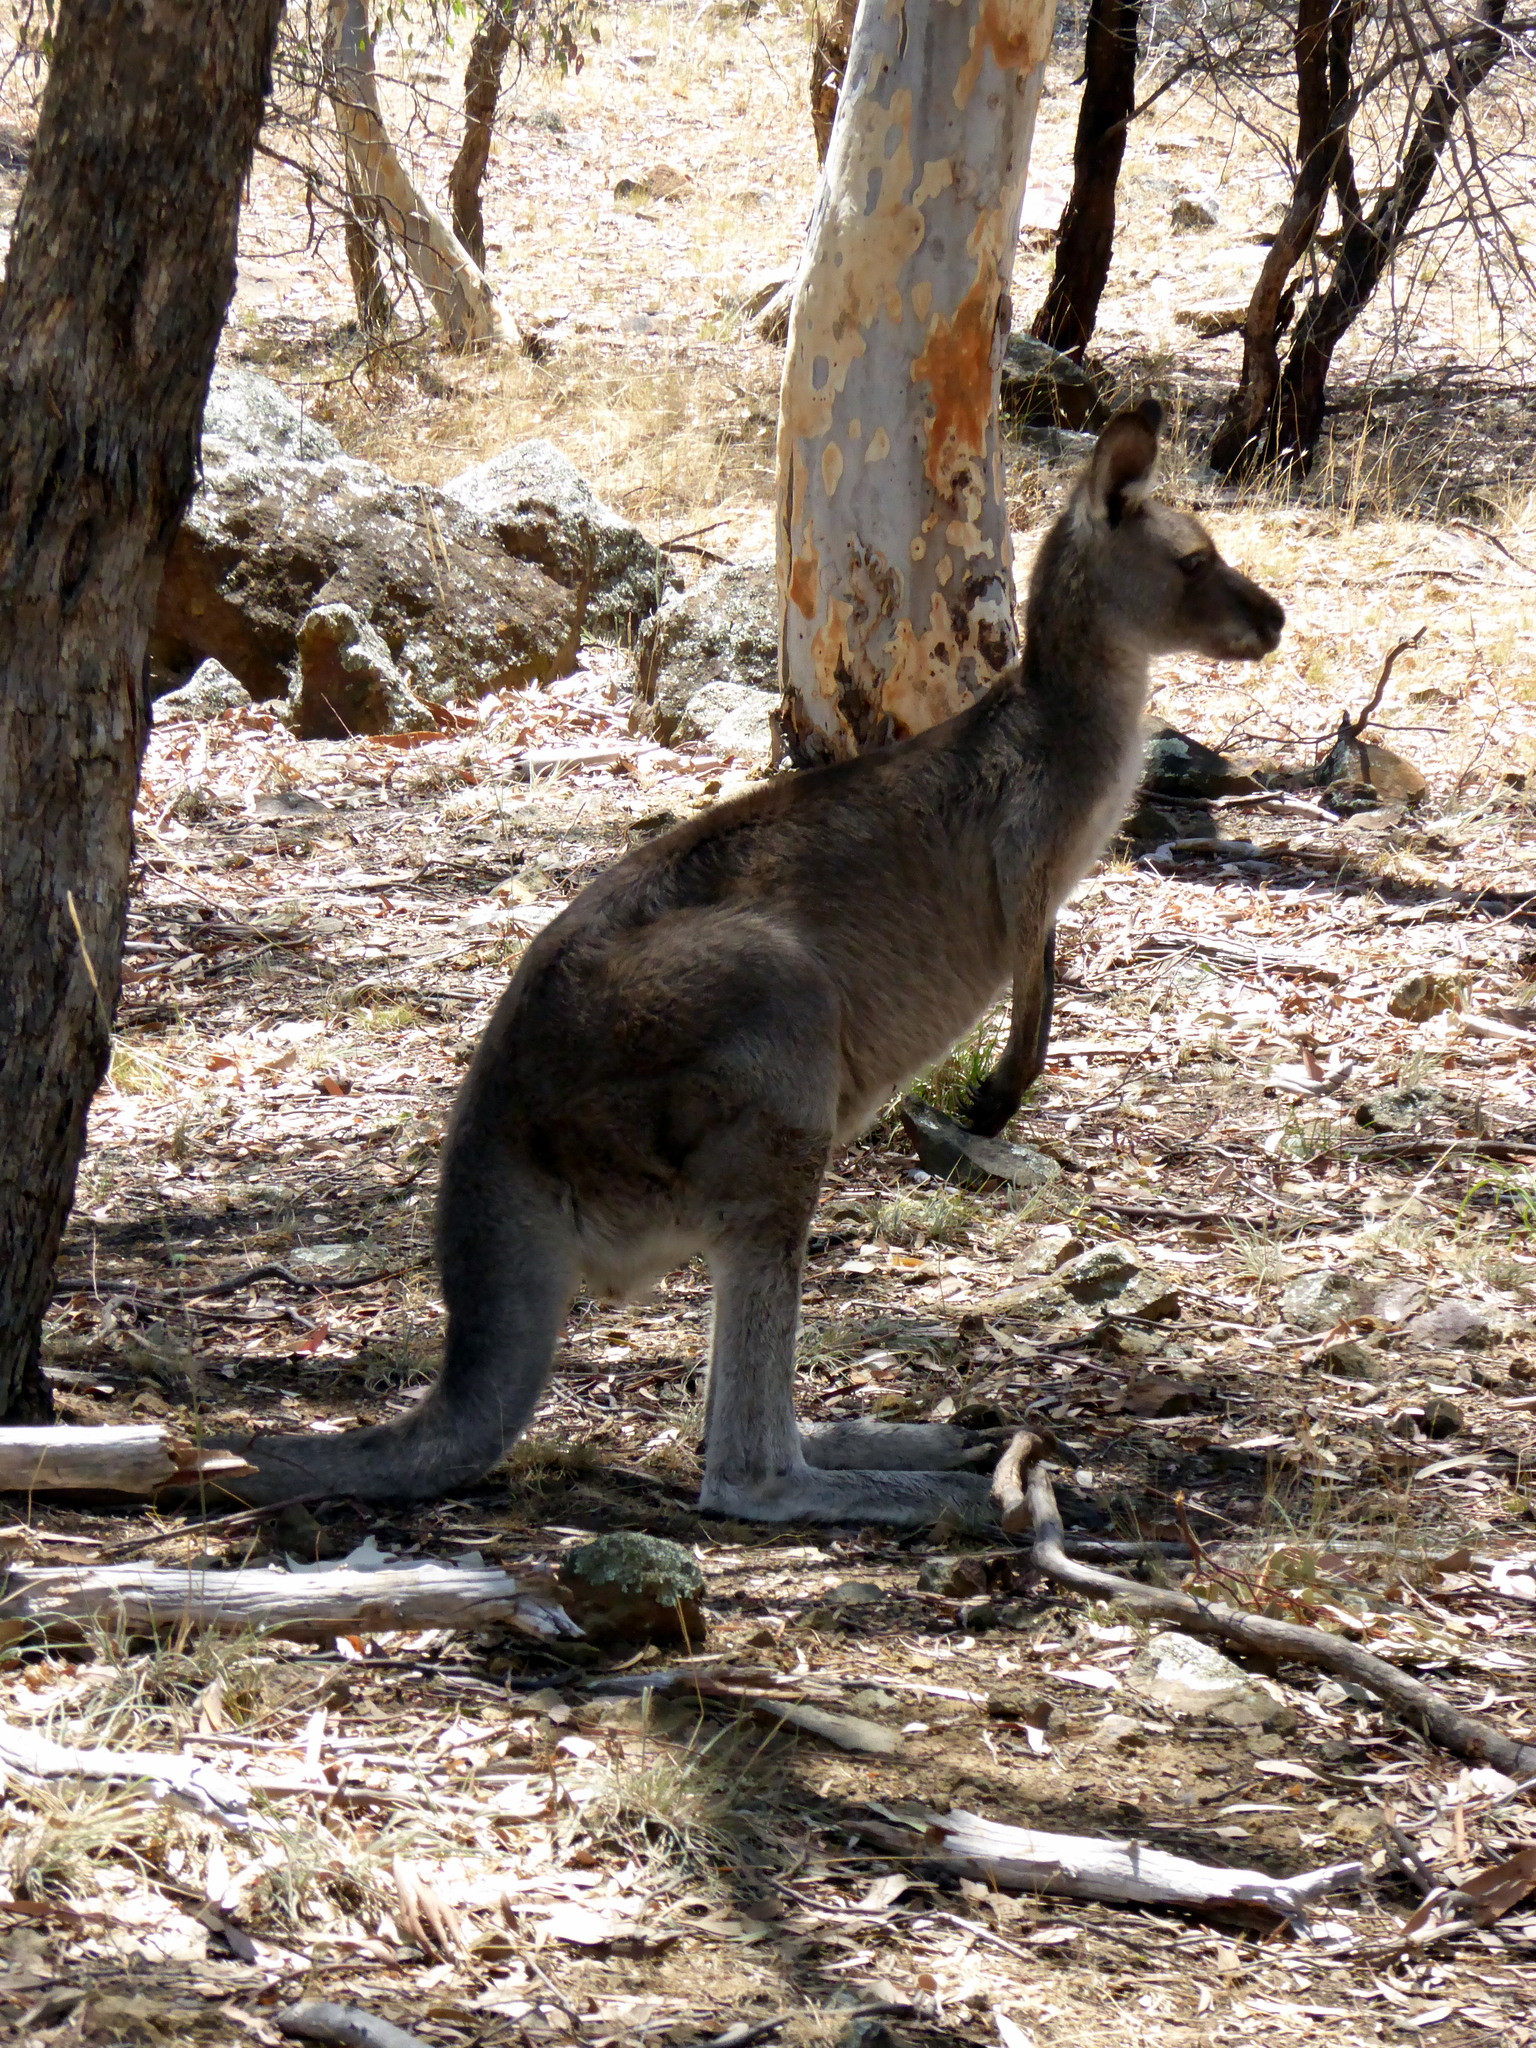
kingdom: Animalia
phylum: Chordata
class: Mammalia
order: Diprotodontia
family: Macropodidae
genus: Macropus
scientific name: Macropus giganteus
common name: Eastern grey kangaroo
